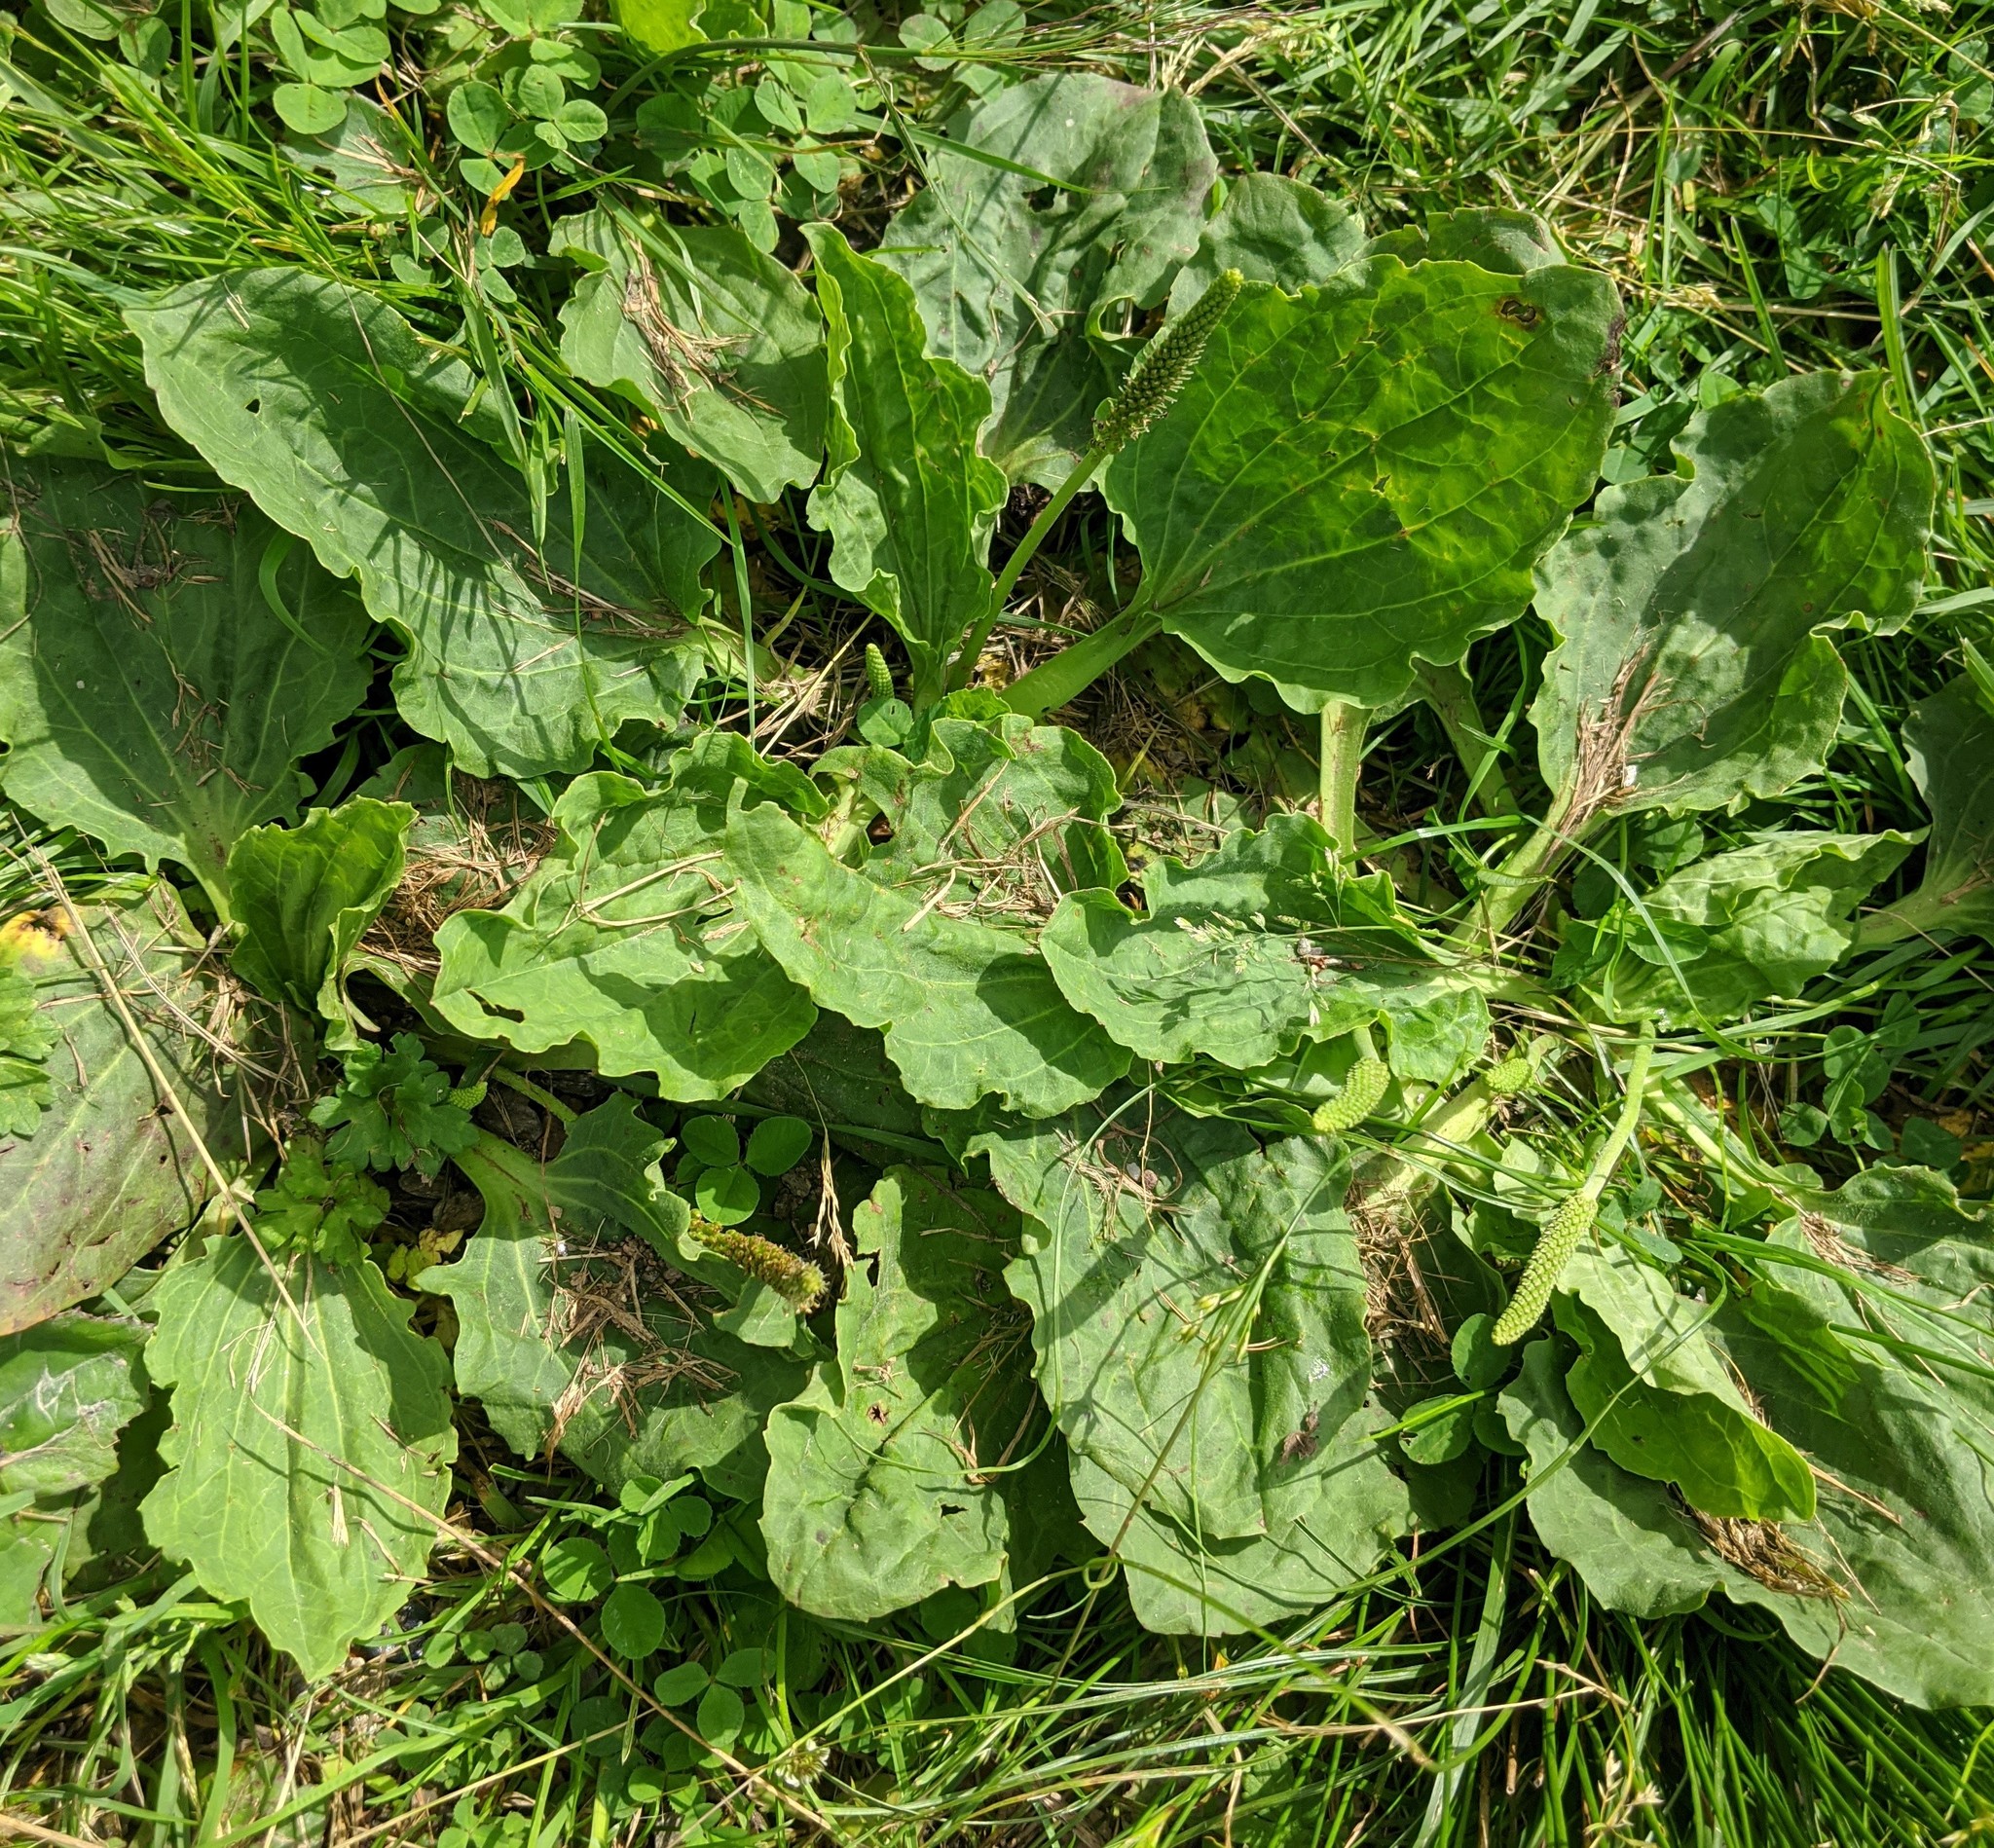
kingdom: Plantae
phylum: Tracheophyta
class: Magnoliopsida
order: Lamiales
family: Plantaginaceae
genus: Plantago
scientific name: Plantago major
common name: Common plantain
